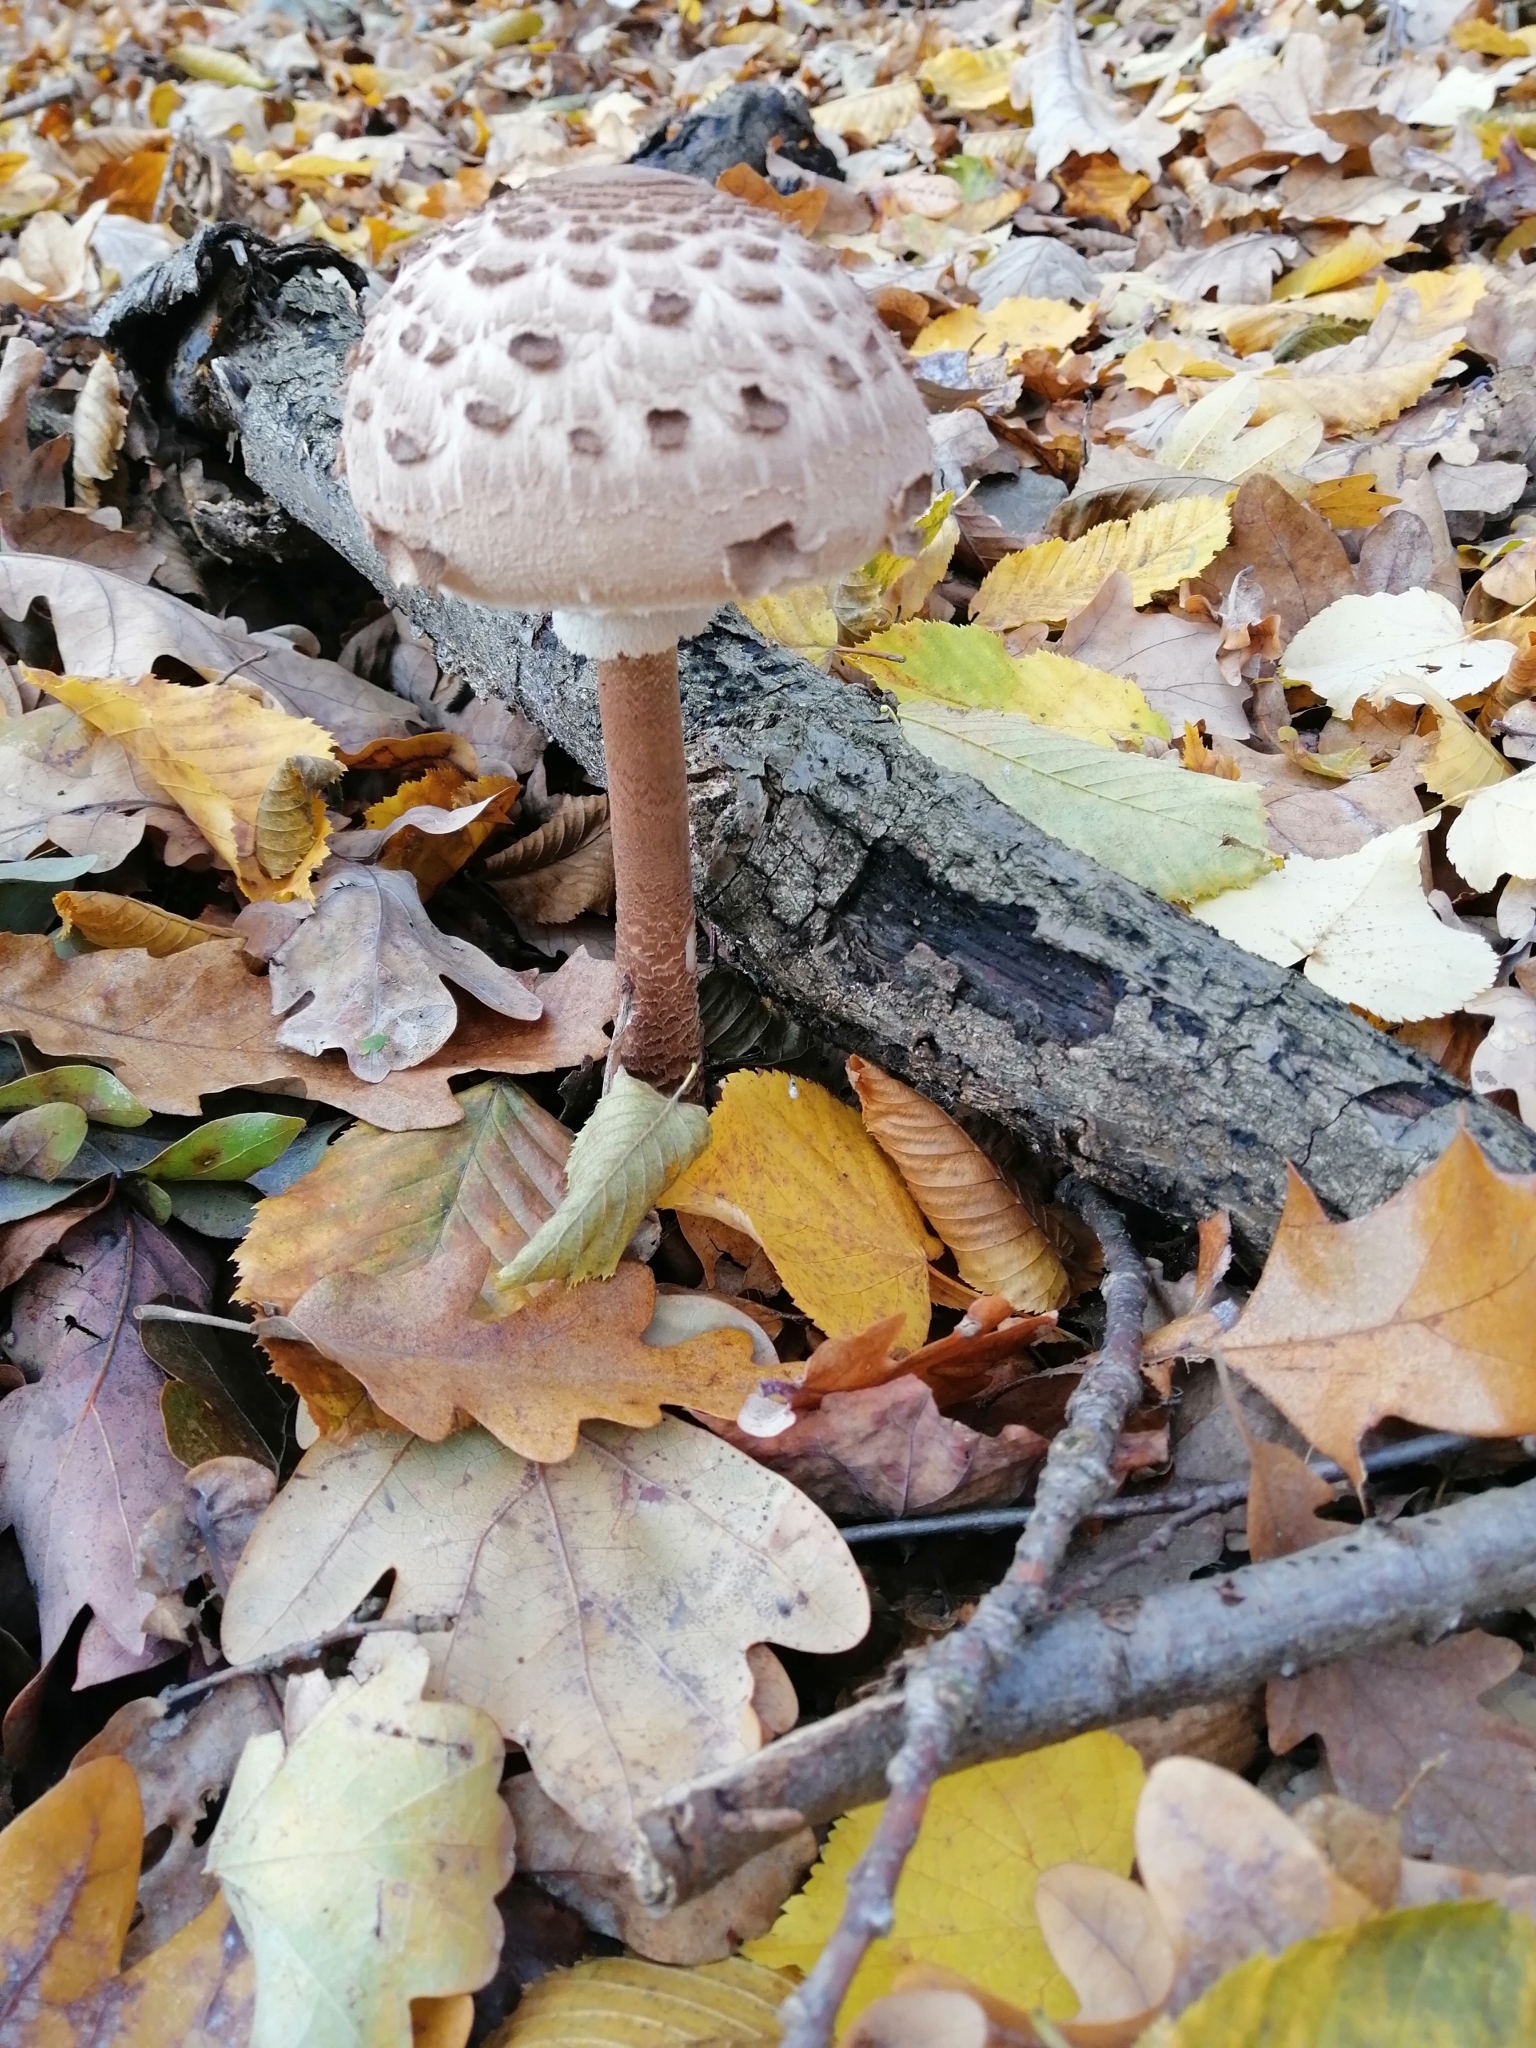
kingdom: Fungi
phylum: Basidiomycota
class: Agaricomycetes
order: Agaricales
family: Agaricaceae
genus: Macrolepiota
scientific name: Macrolepiota procera
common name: Parasol
